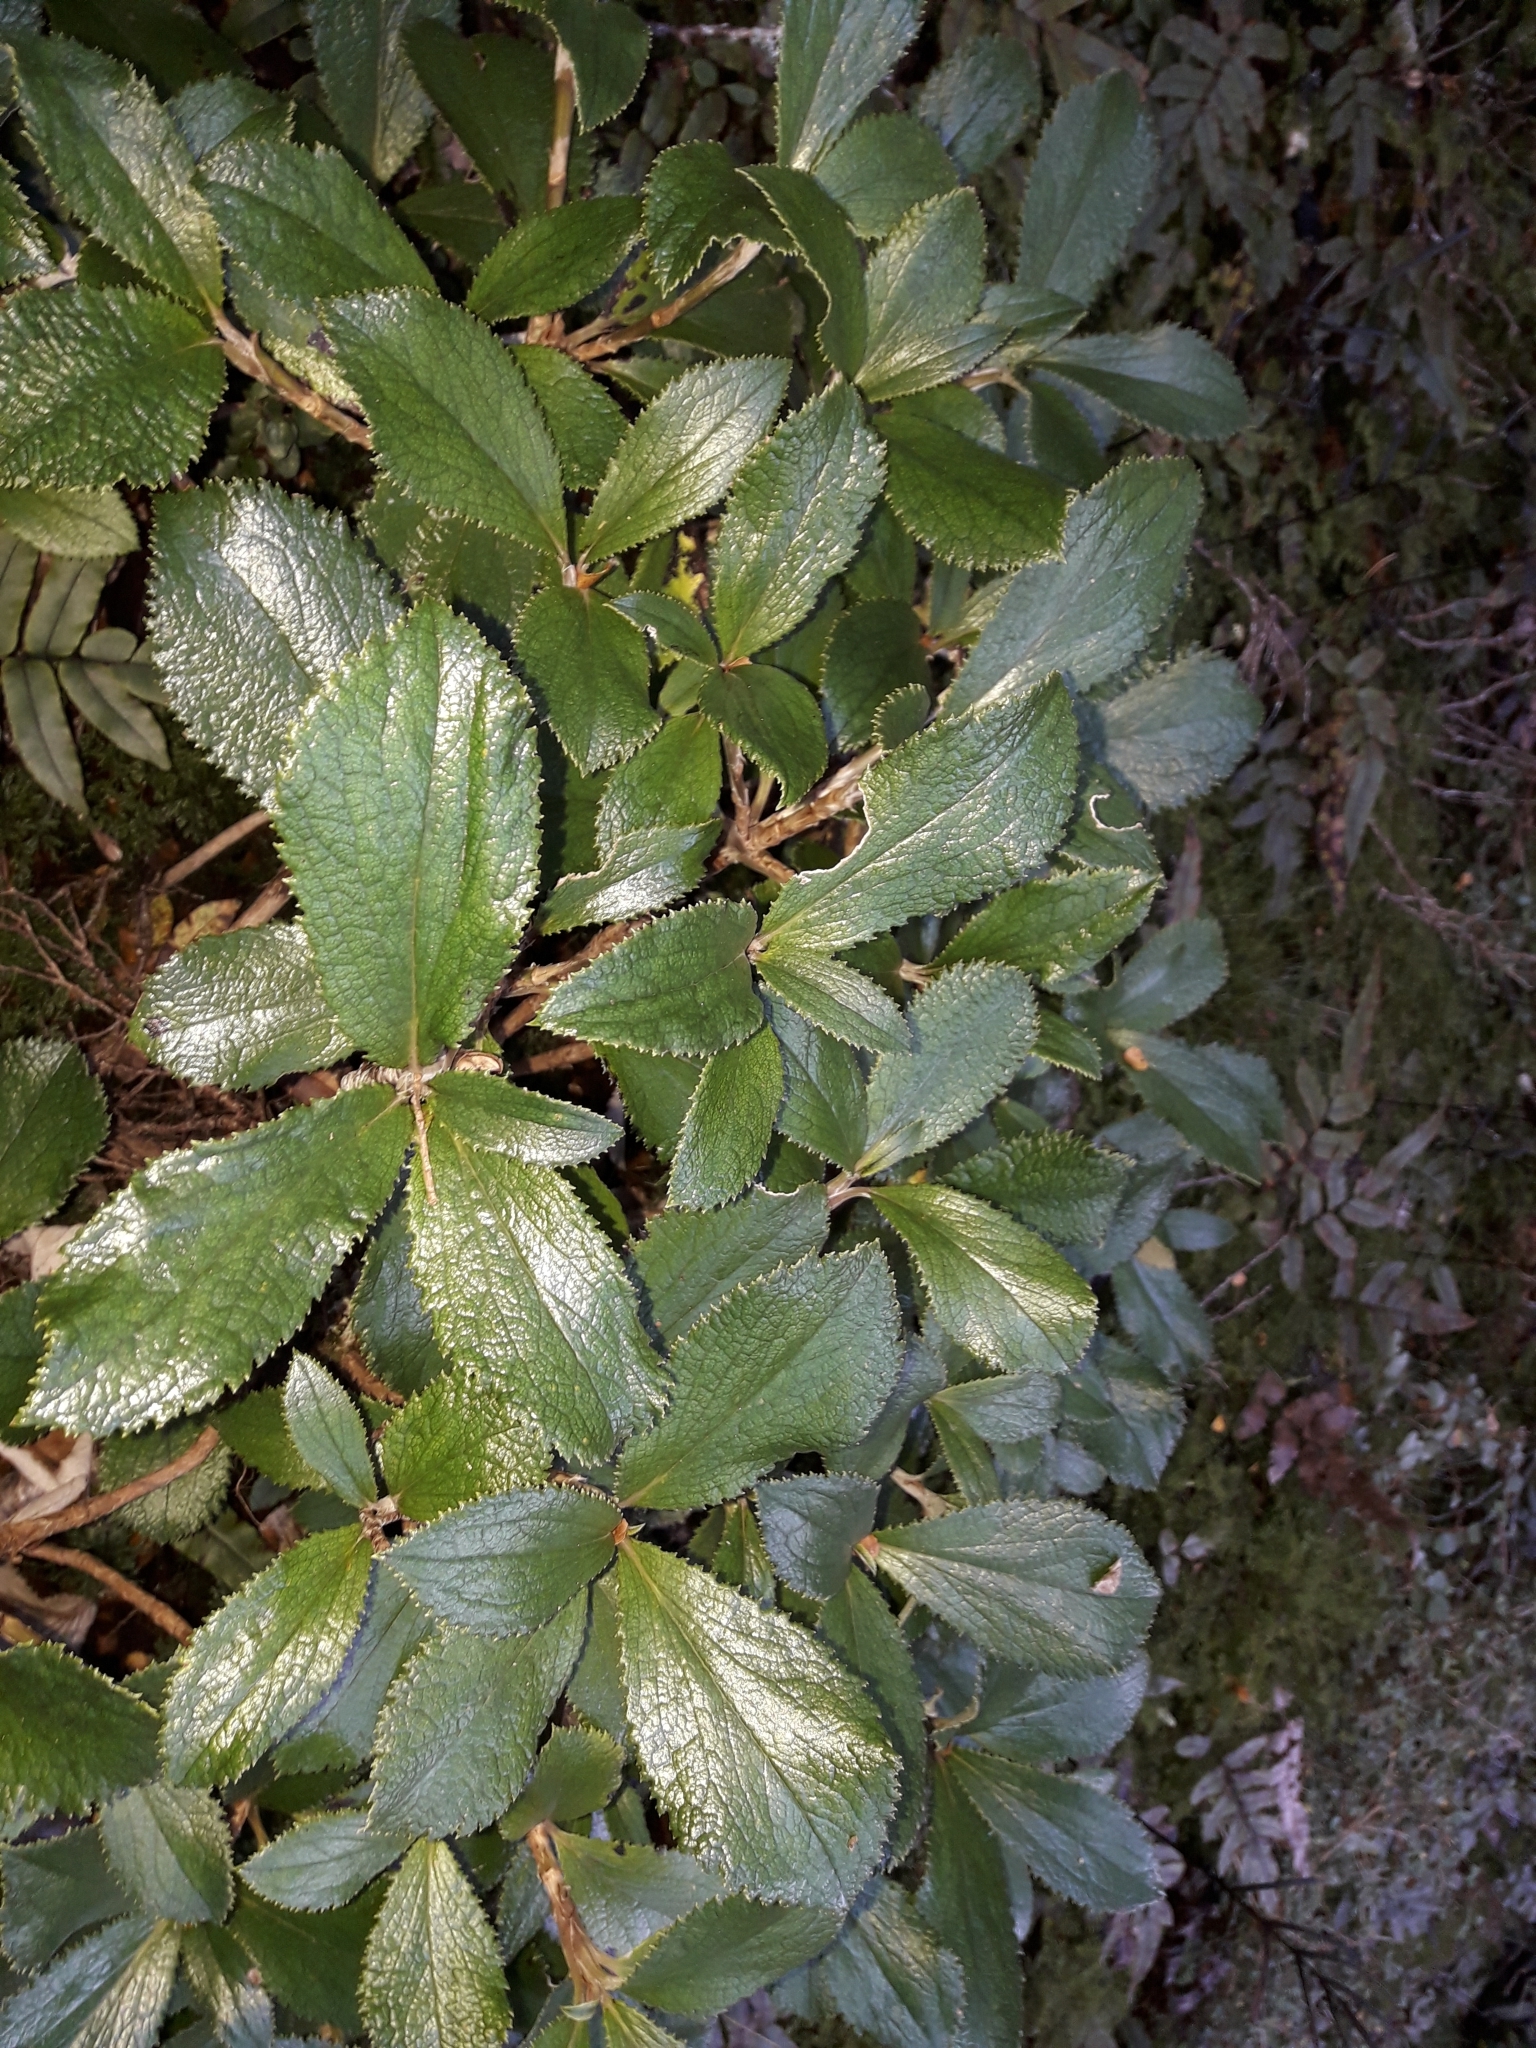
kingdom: Plantae
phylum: Tracheophyta
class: Magnoliopsida
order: Asterales
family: Asteraceae
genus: Macrolearia
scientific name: Macrolearia colensoi
